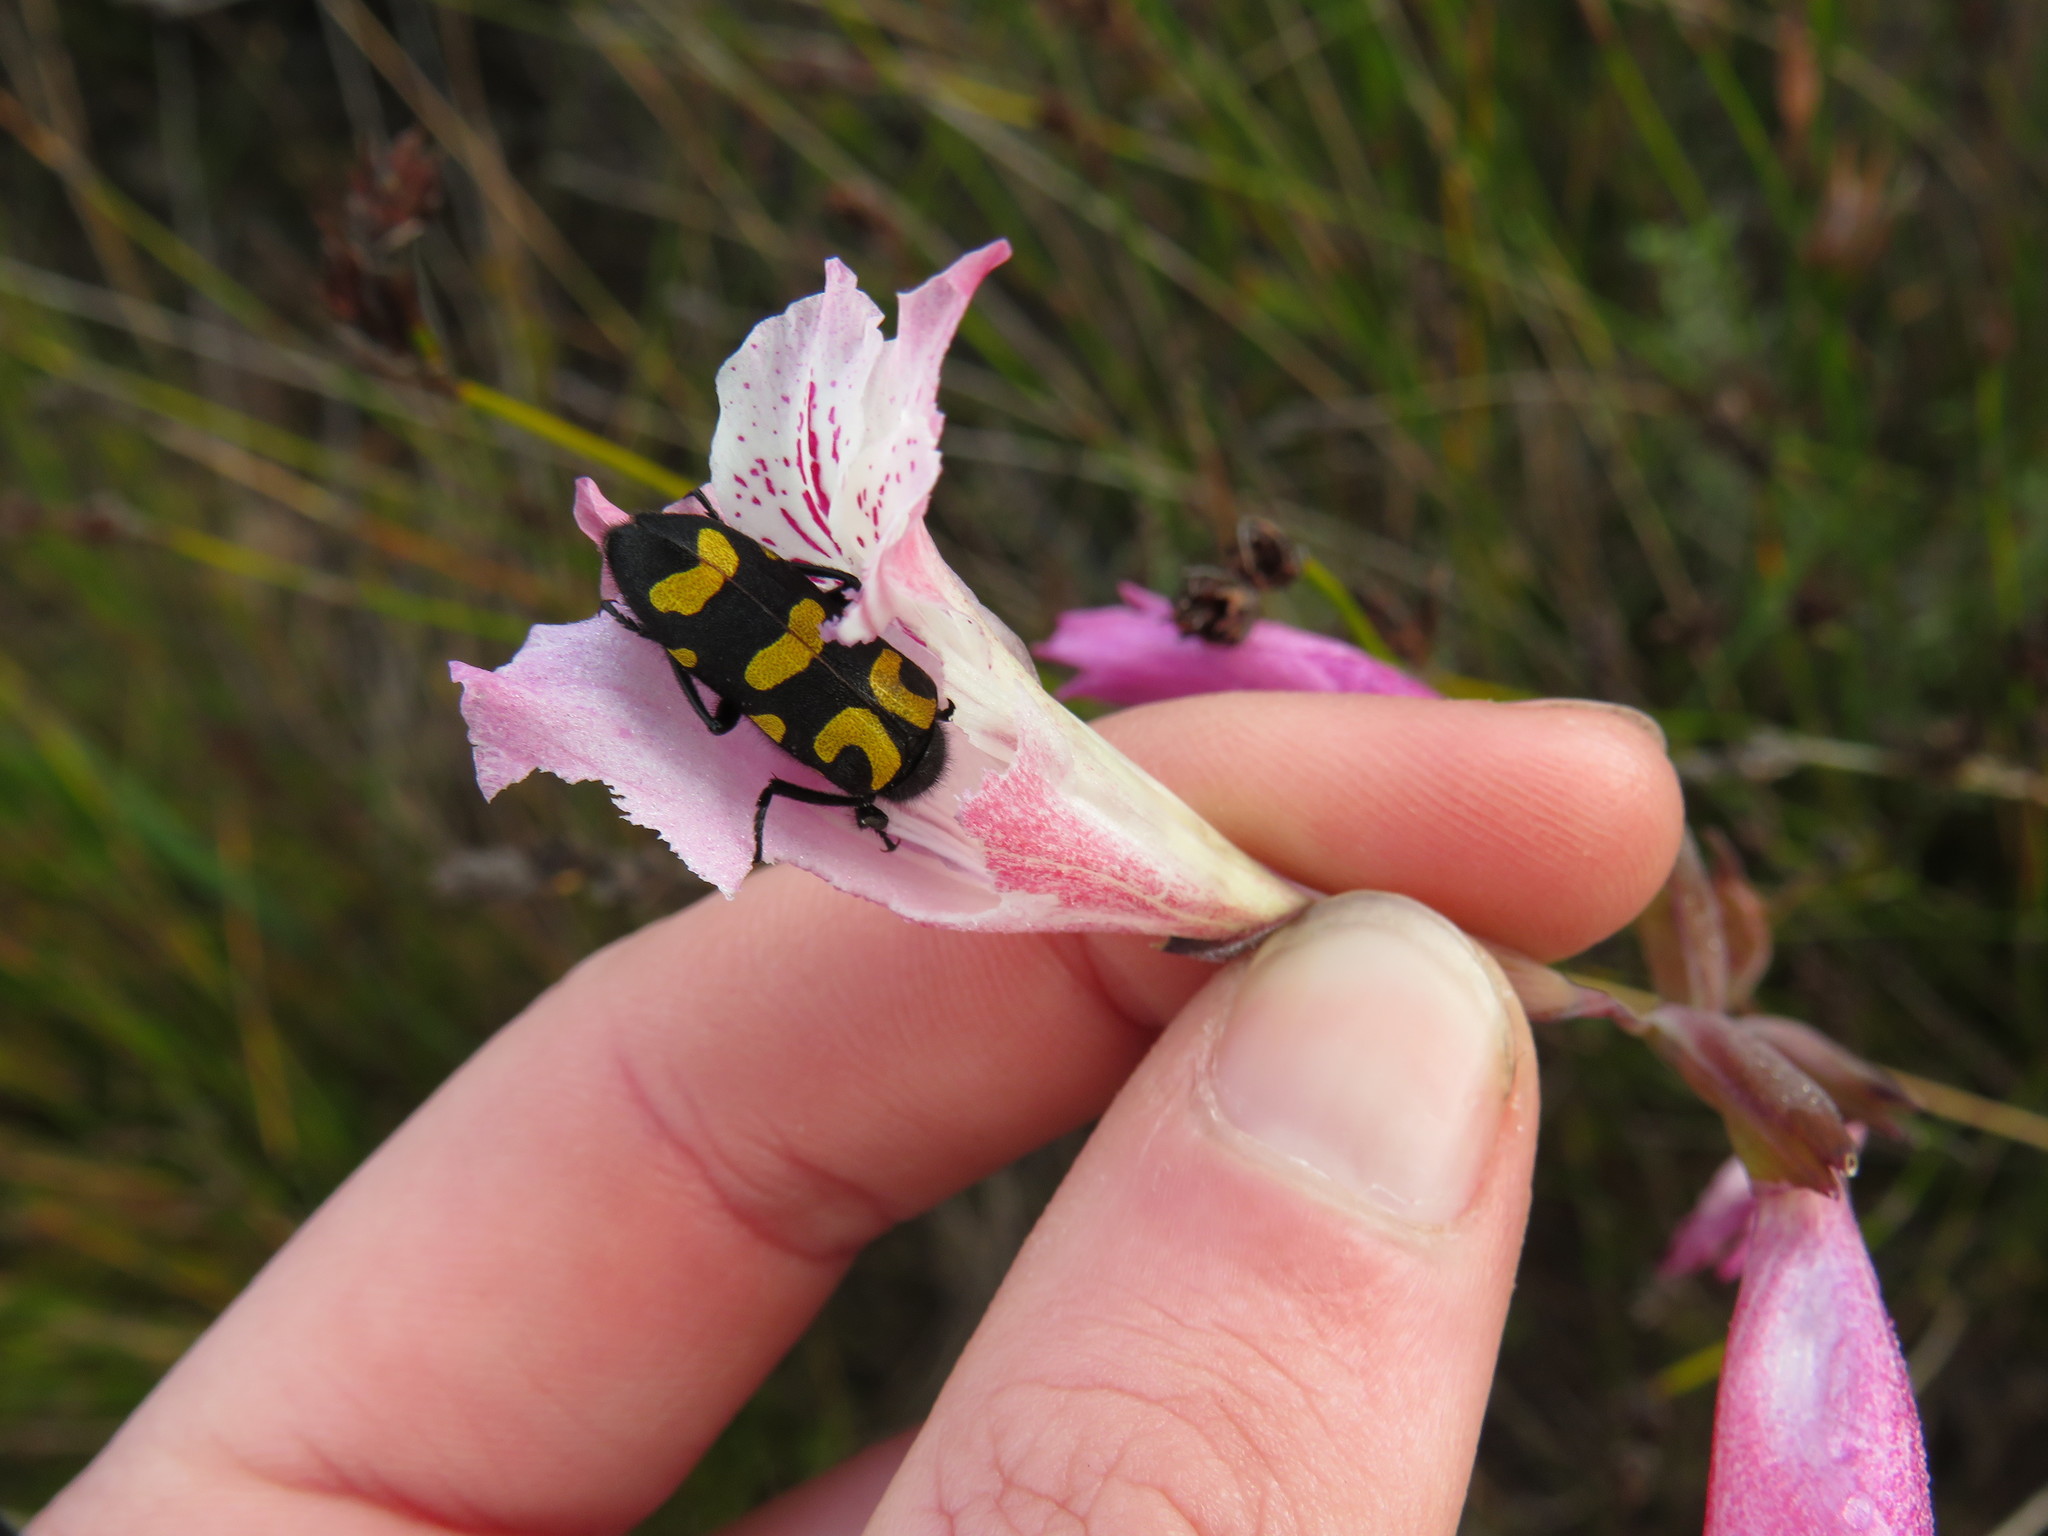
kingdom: Animalia
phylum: Arthropoda
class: Insecta
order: Coleoptera
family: Meloidae
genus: Ceroctis
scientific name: Ceroctis capensis
